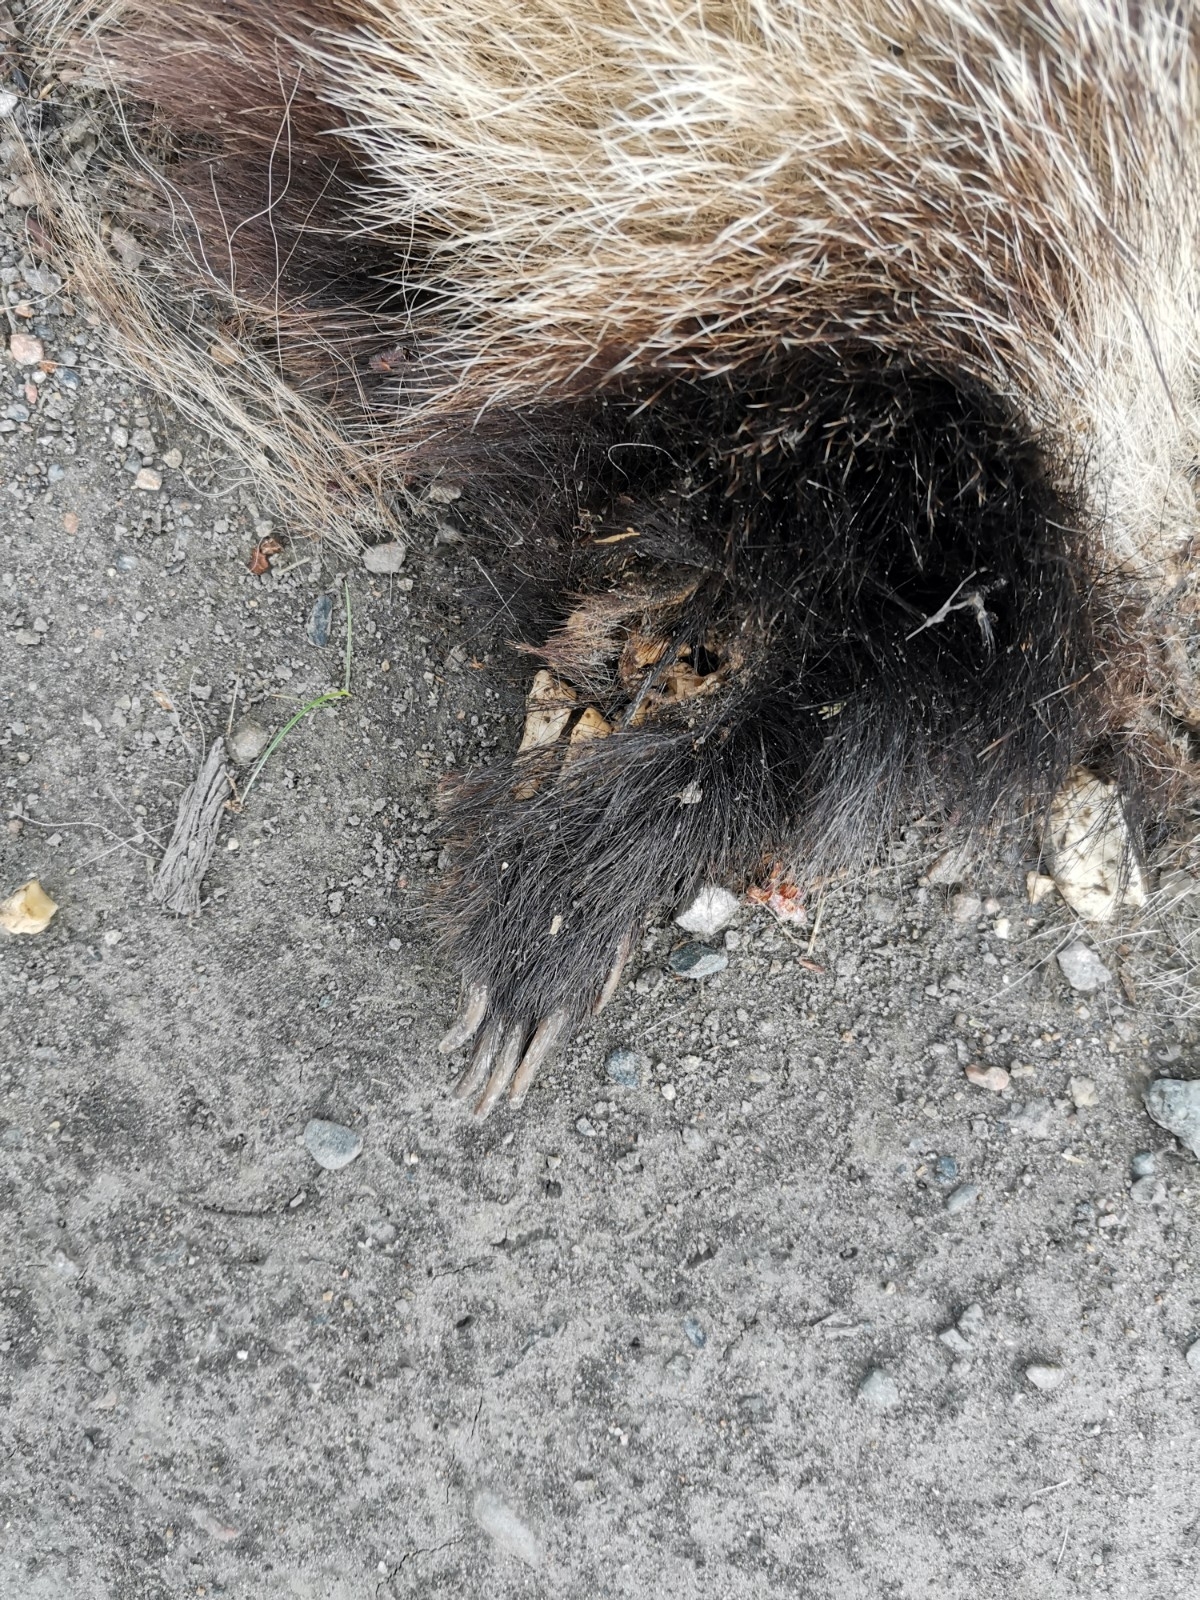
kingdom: Animalia
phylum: Chordata
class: Mammalia
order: Carnivora
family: Mustelidae
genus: Meles
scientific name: Meles meles
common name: Eurasian badger
